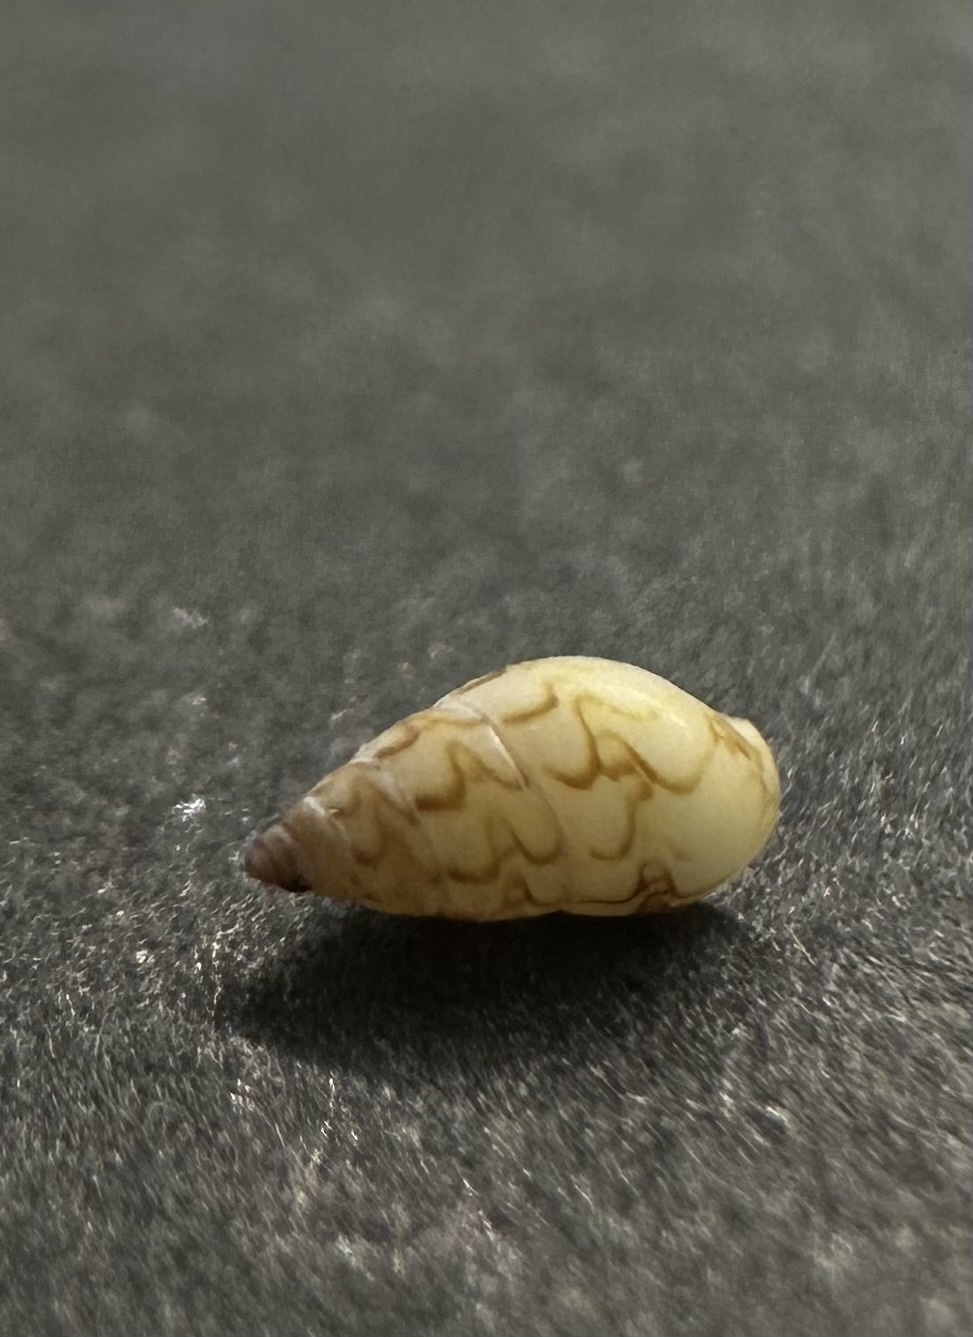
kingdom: Animalia
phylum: Mollusca
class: Gastropoda
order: Neogastropoda
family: Columbellidae
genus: Astyris
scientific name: Astyris lunata
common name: Lunar dovesnail
